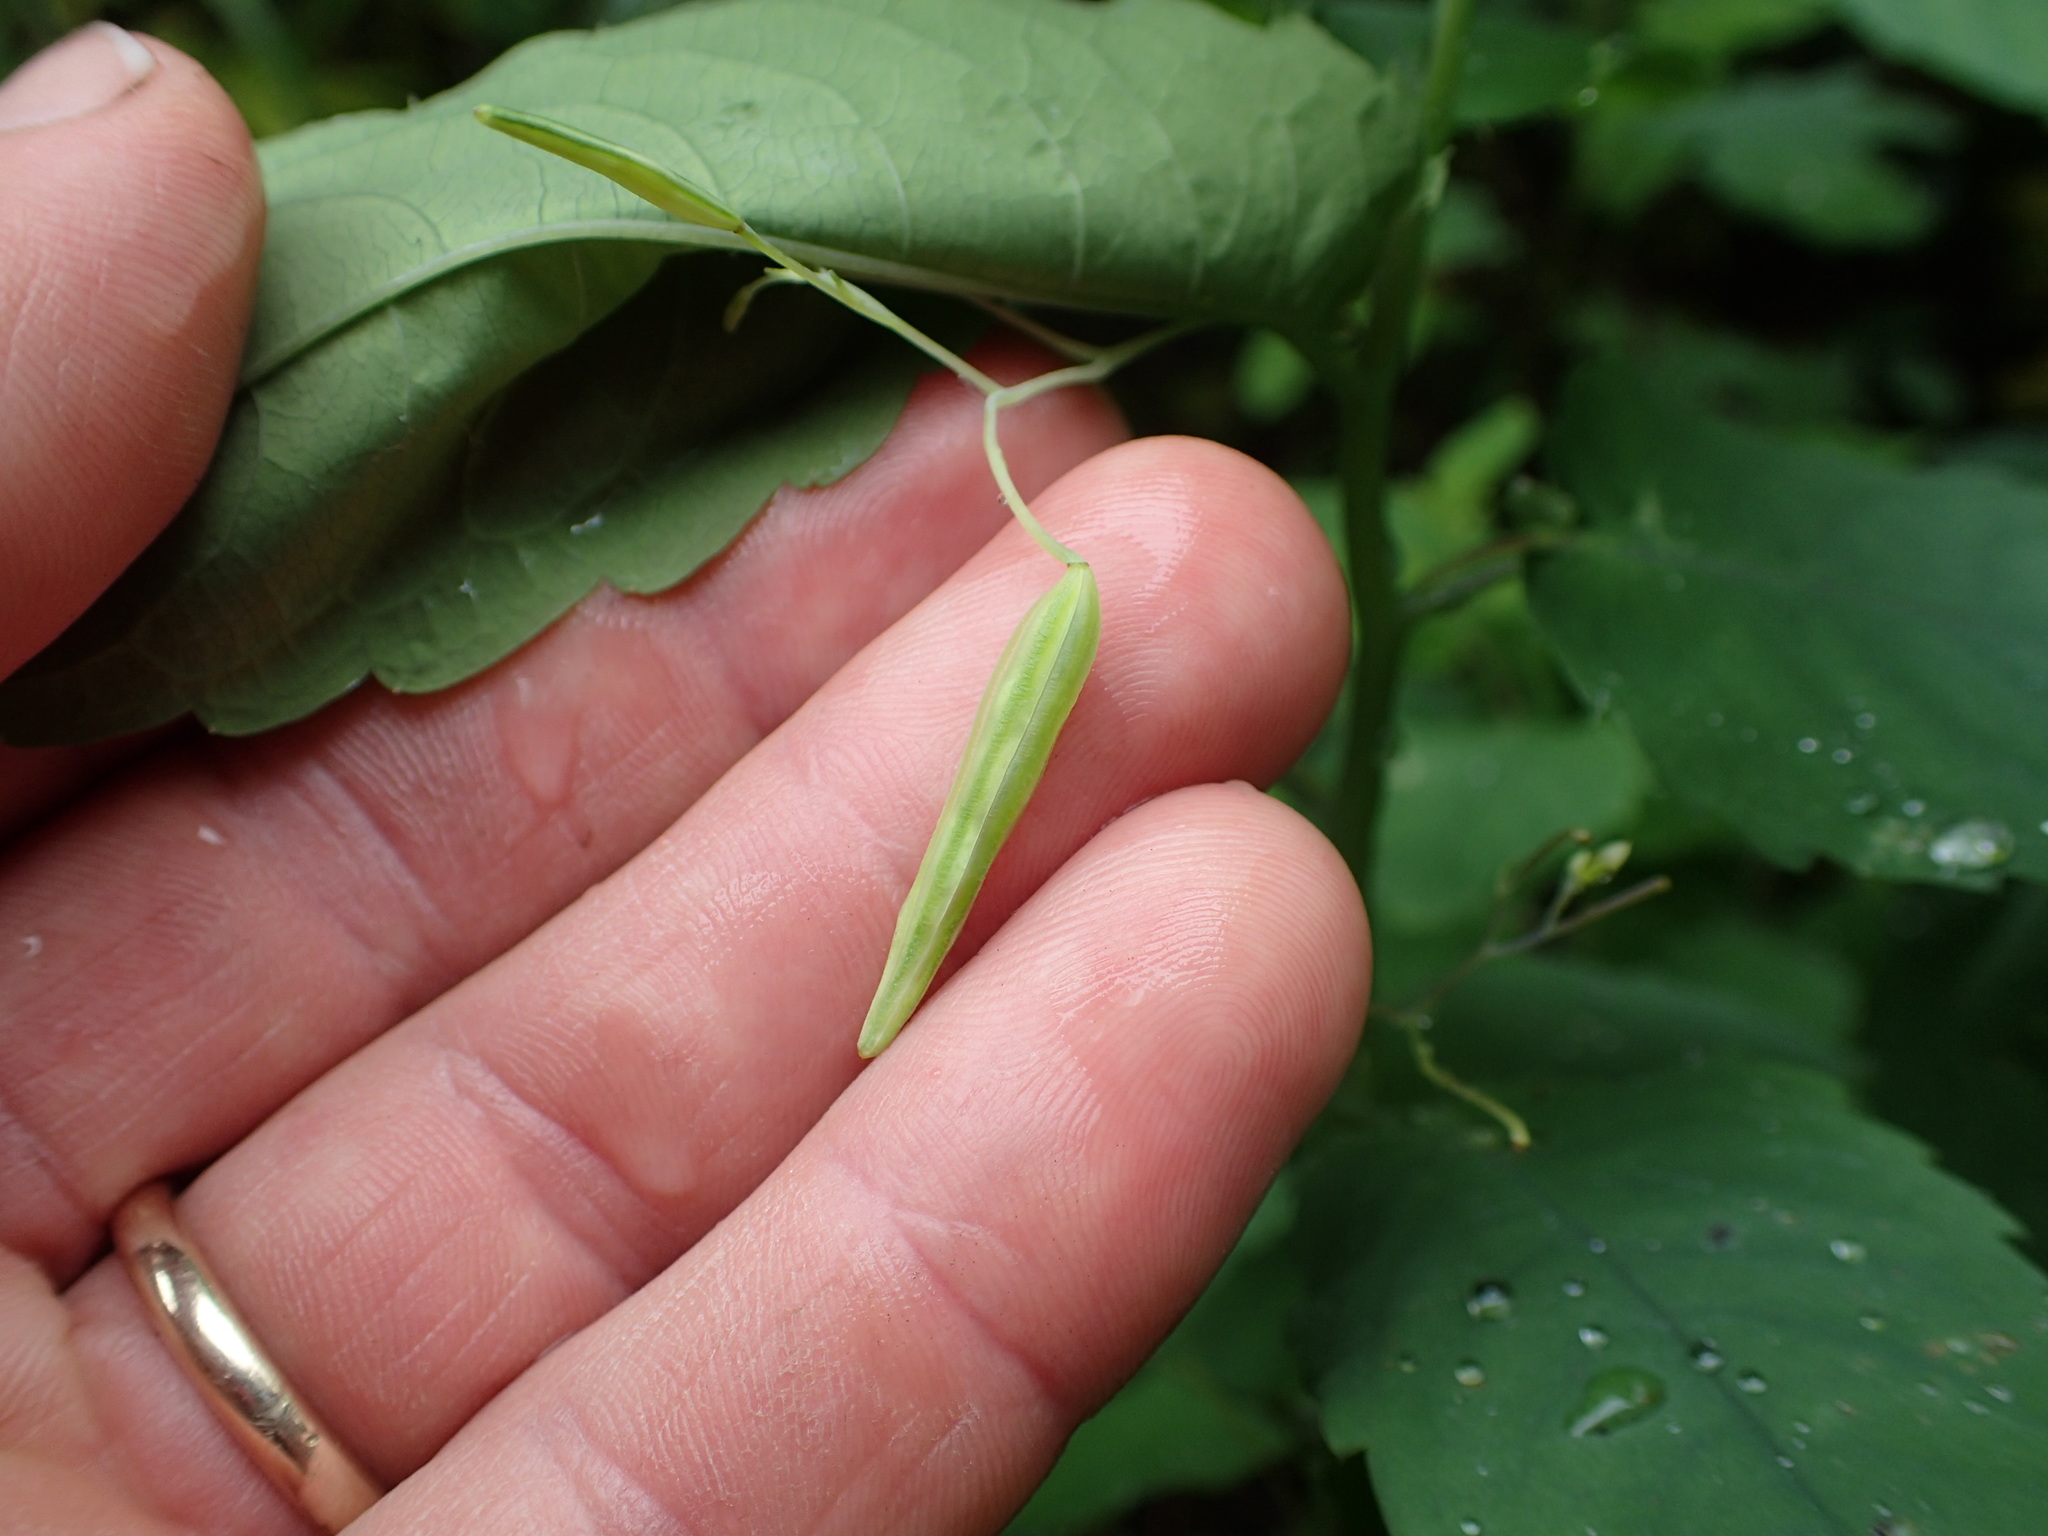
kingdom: Plantae
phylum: Tracheophyta
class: Magnoliopsida
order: Ericales
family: Balsaminaceae
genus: Impatiens
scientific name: Impatiens noli-tangere
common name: Touch-me-not balsam
